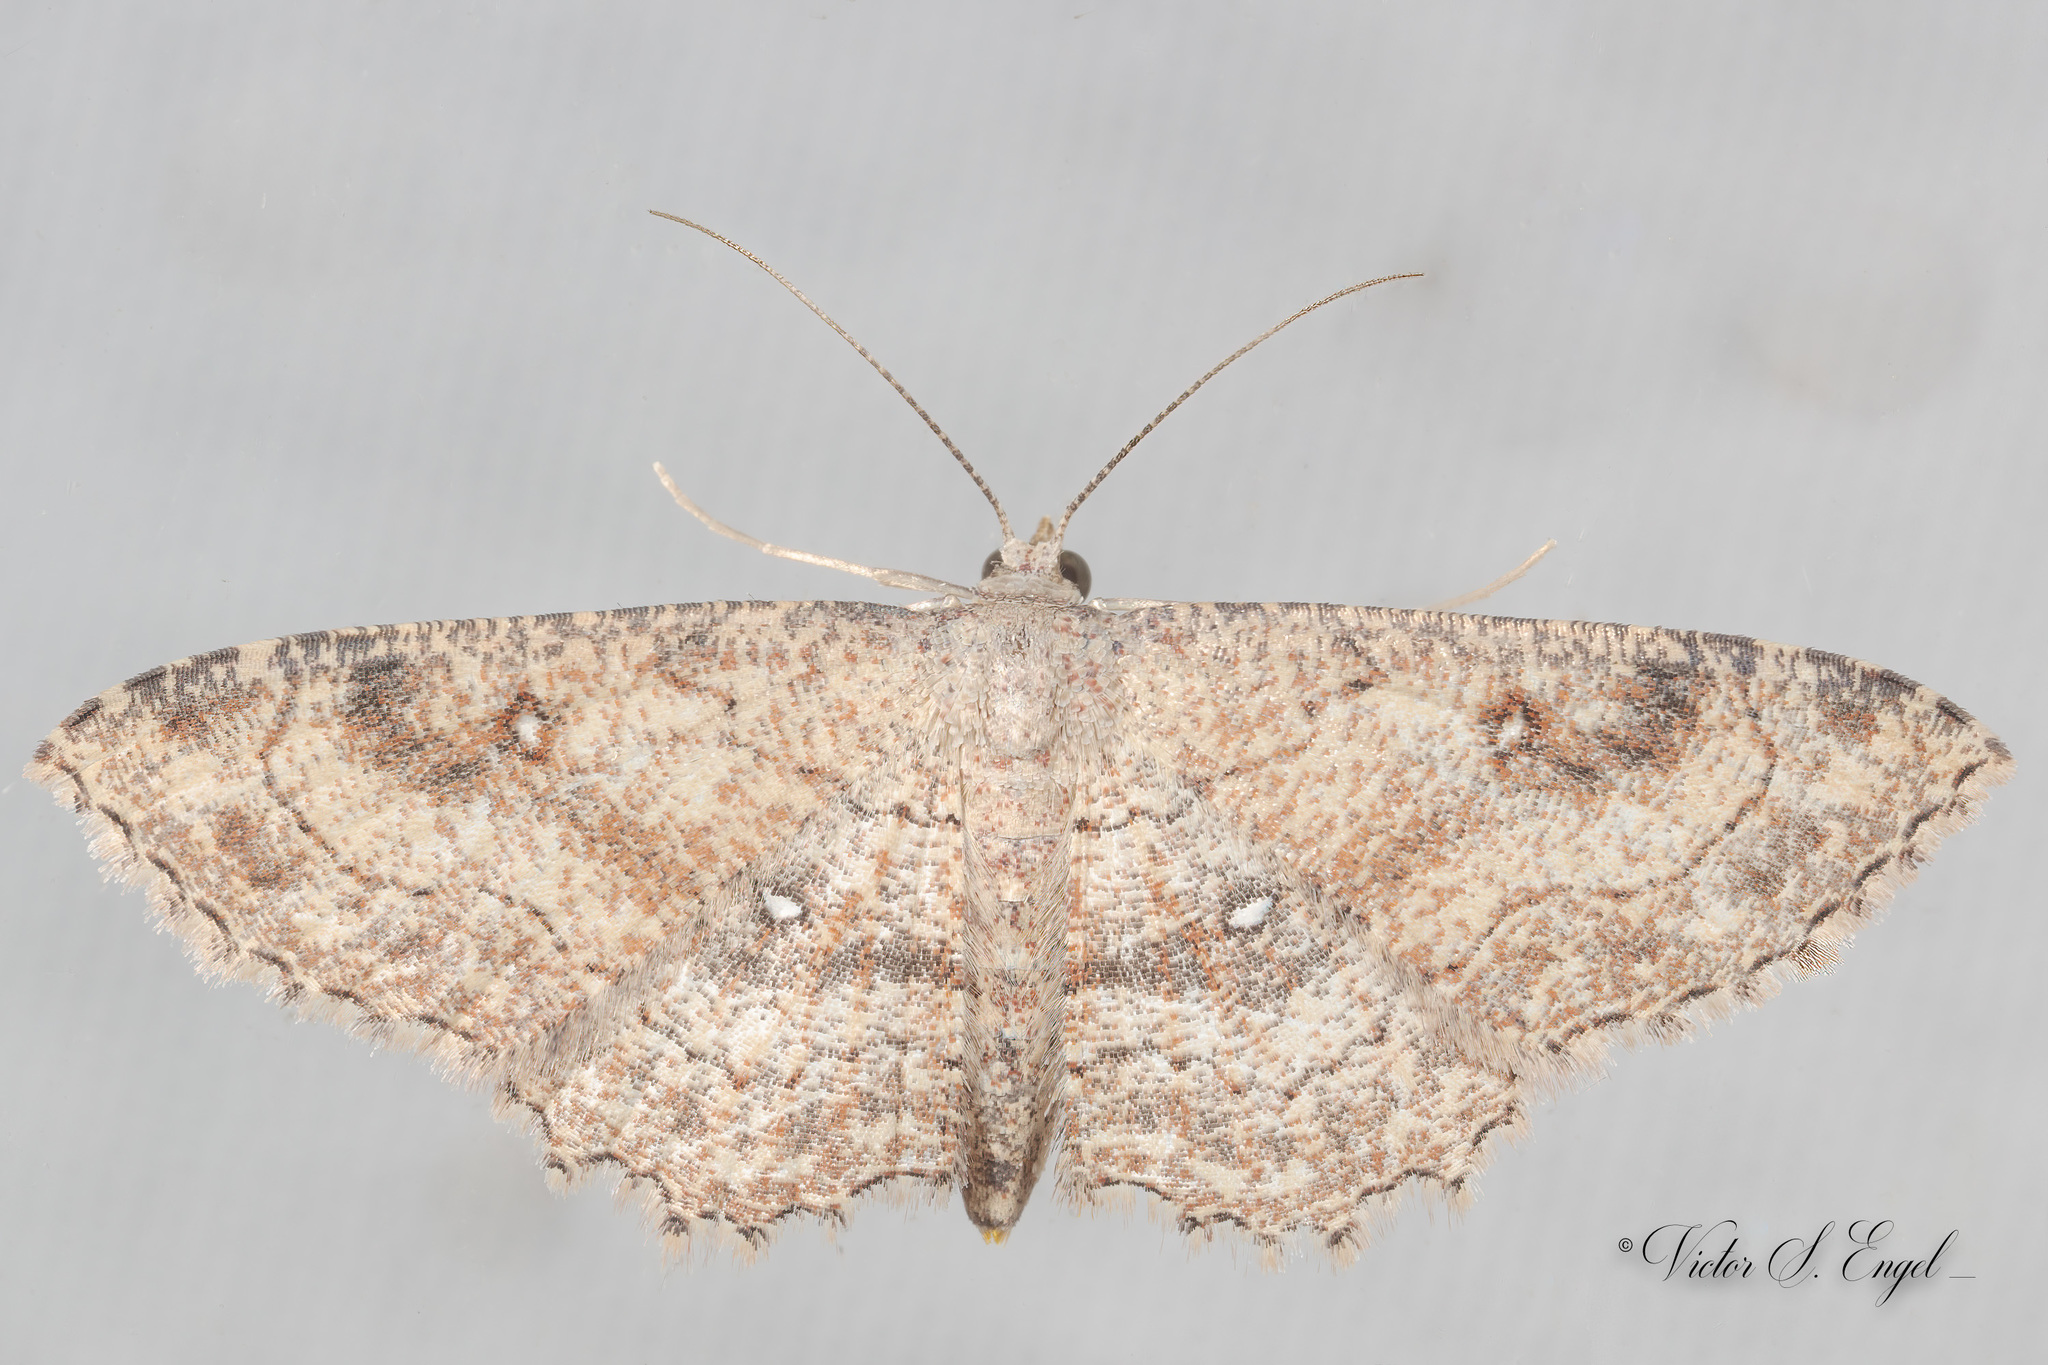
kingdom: Animalia
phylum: Arthropoda
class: Insecta
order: Lepidoptera
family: Geometridae
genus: Cyclophora
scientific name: Cyclophora nanaria
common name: Cankerworm
